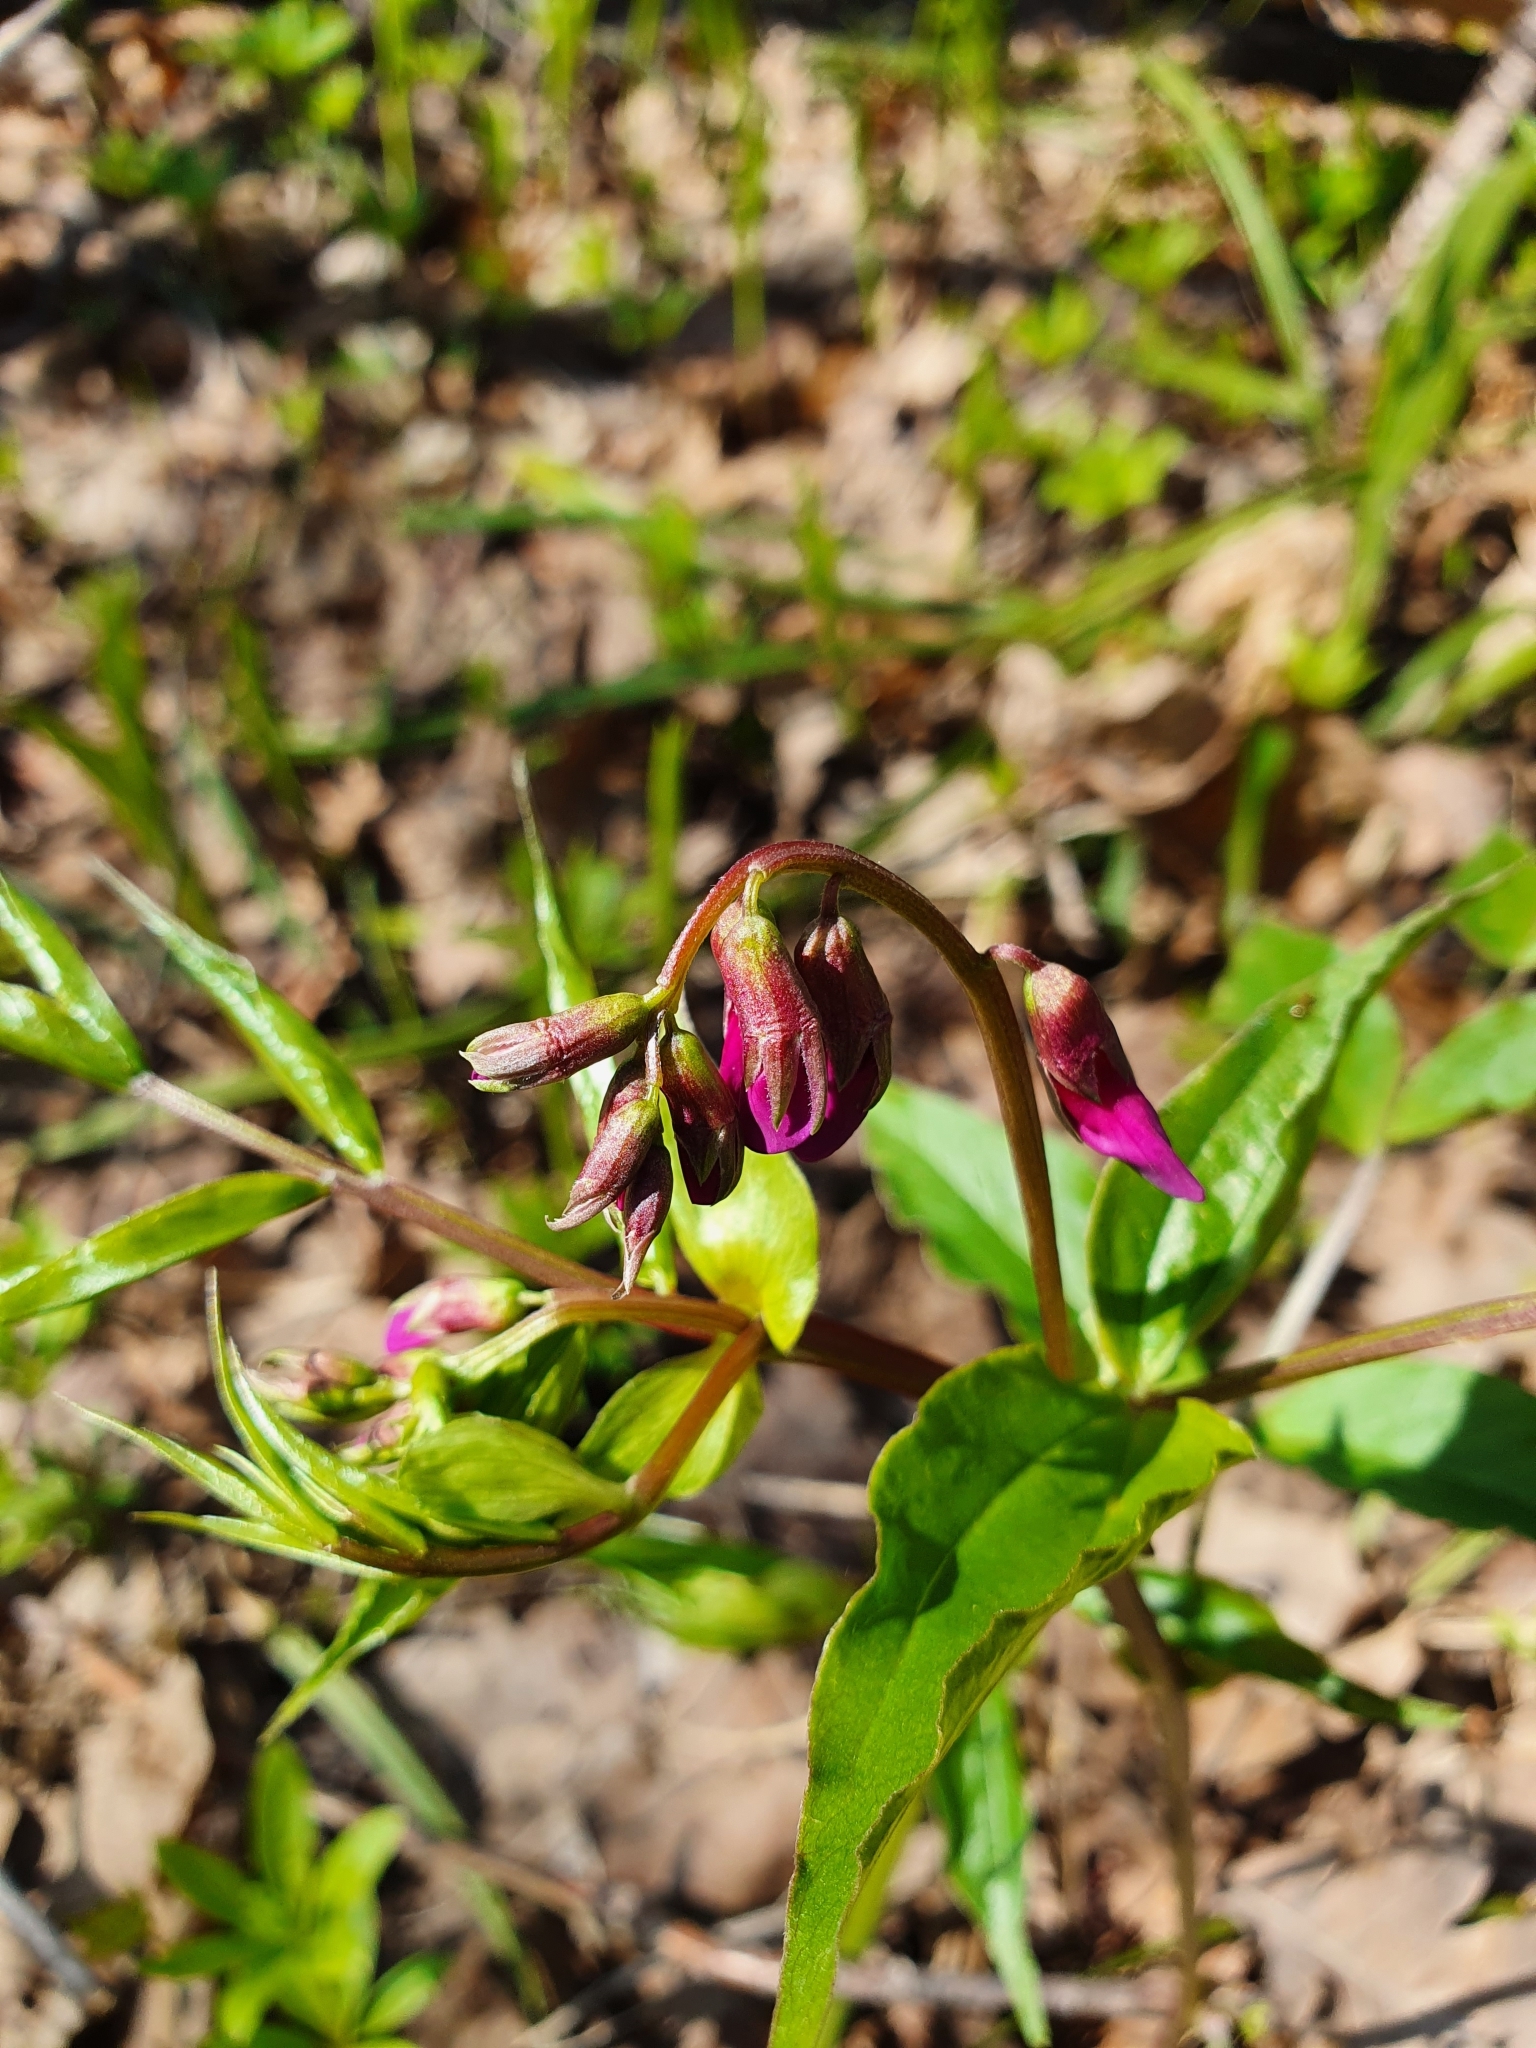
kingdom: Plantae
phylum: Tracheophyta
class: Magnoliopsida
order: Fabales
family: Fabaceae
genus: Lathyrus
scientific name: Lathyrus vernus
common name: Spring pea
